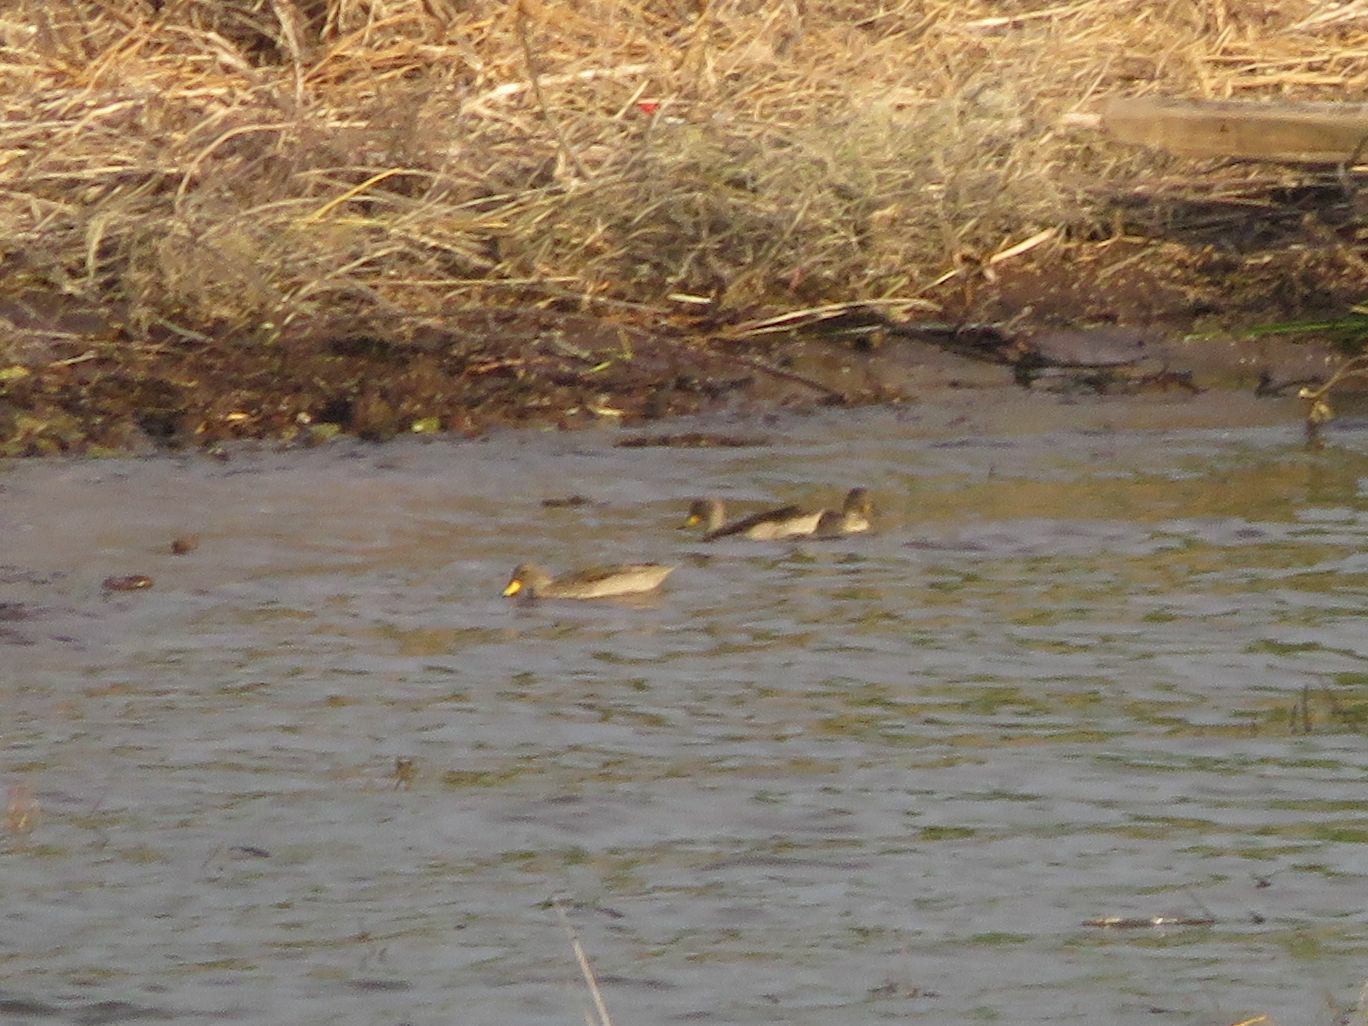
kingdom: Animalia
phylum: Chordata
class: Aves
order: Anseriformes
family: Anatidae
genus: Anas
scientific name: Anas flavirostris
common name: Yellow-billed teal
